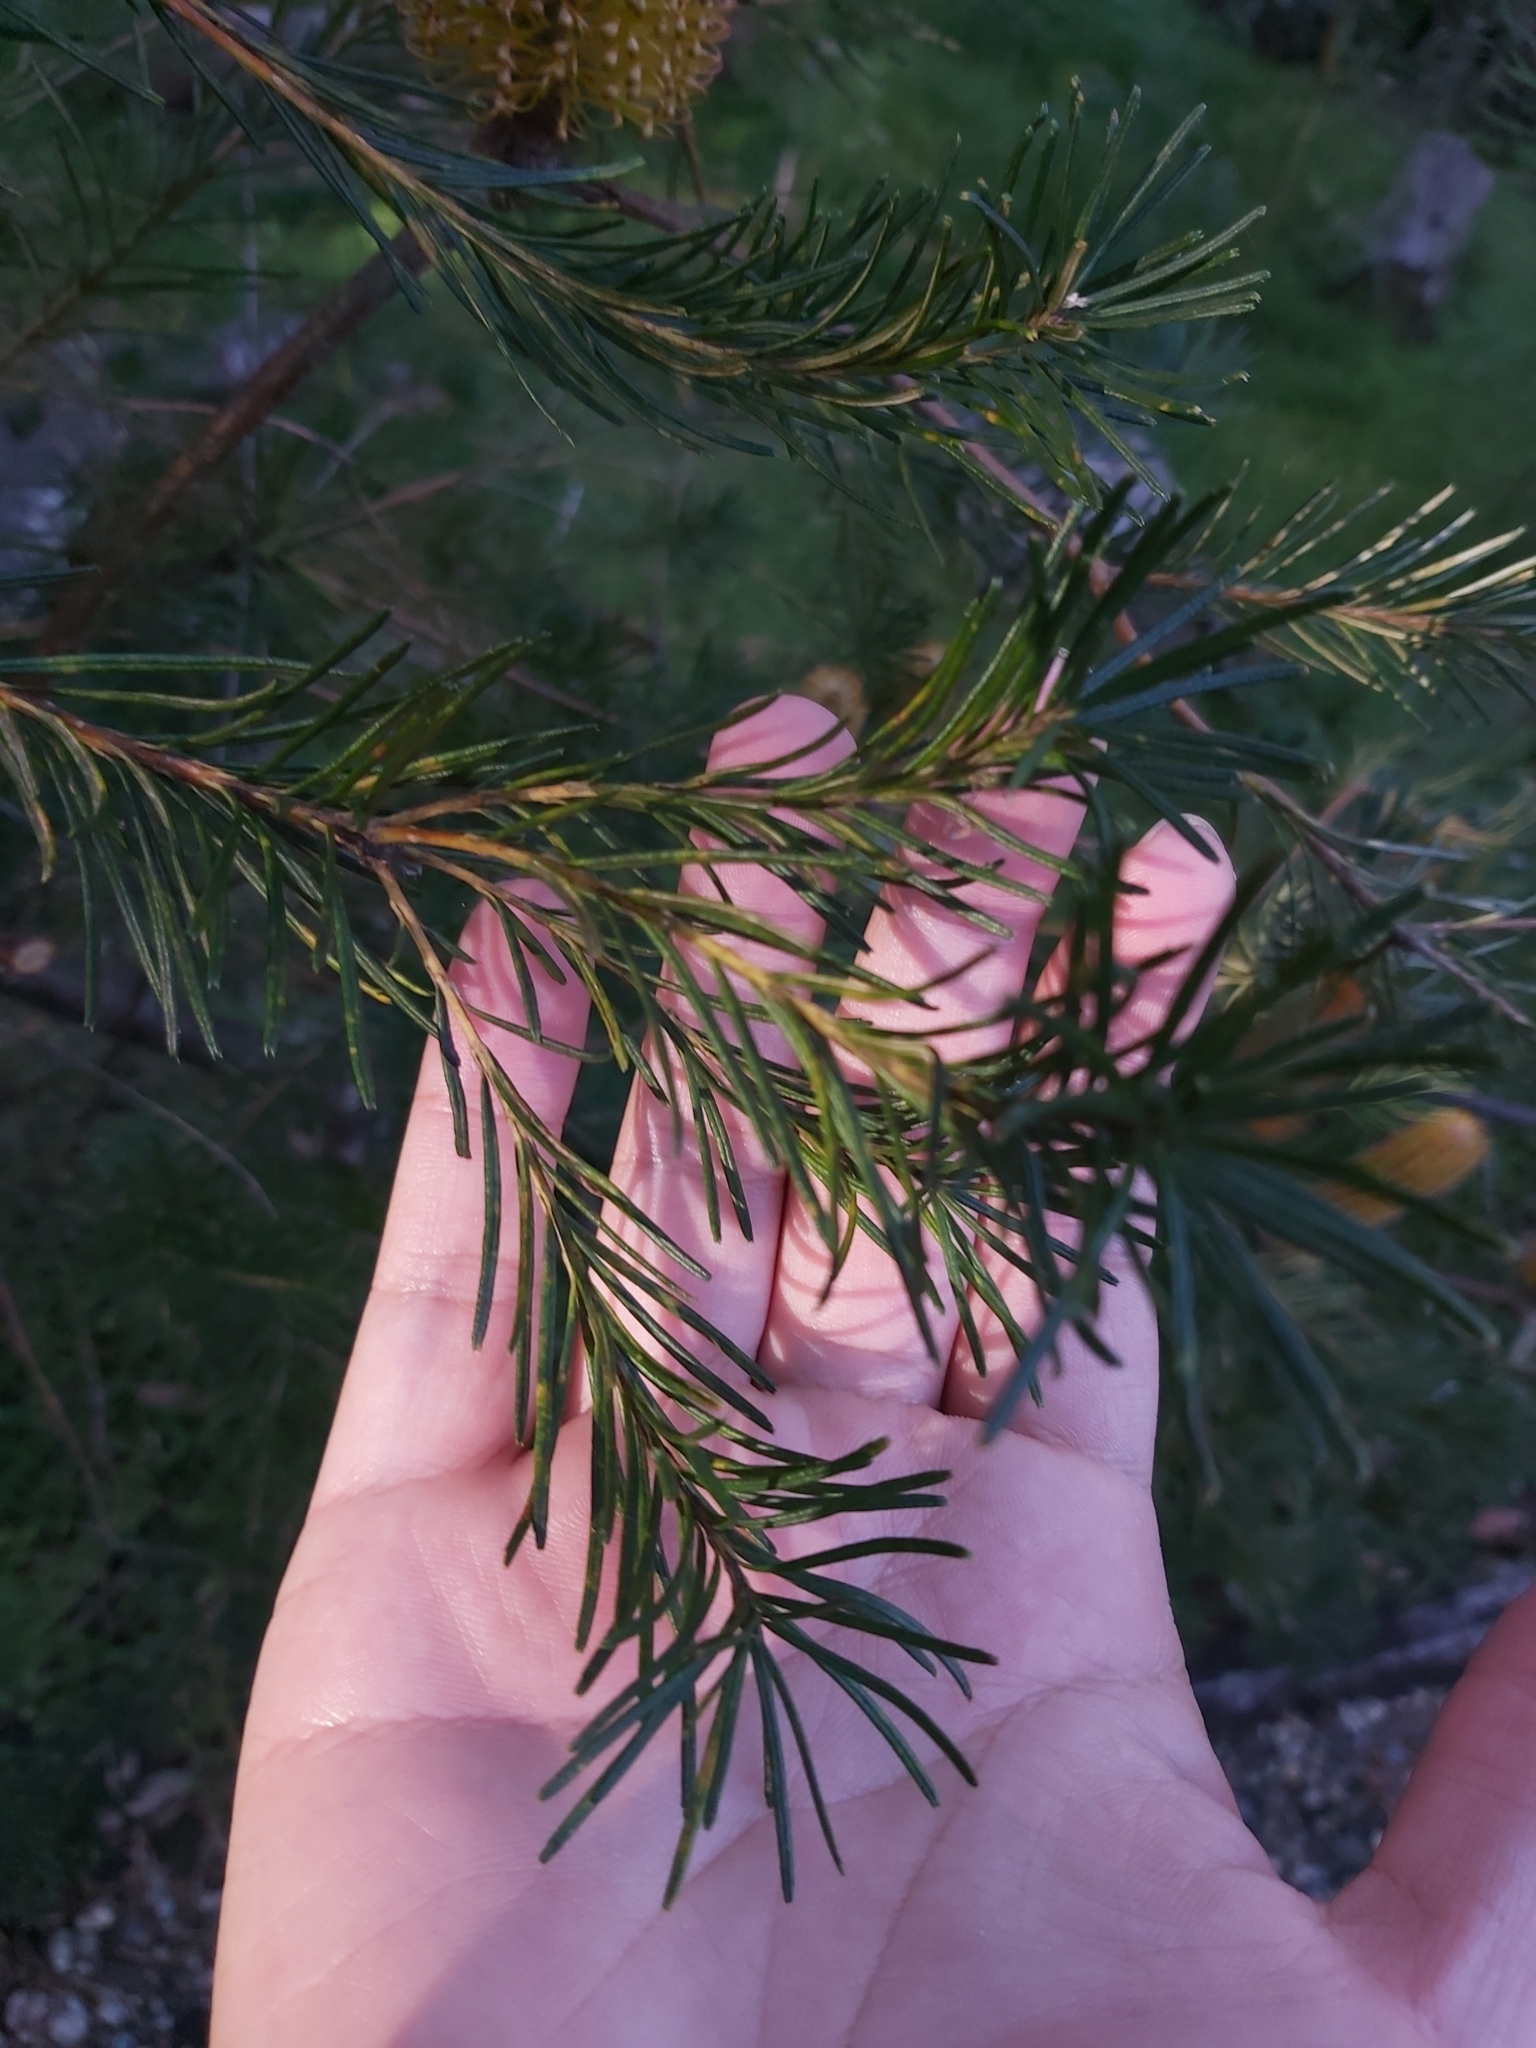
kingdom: Plantae
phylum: Tracheophyta
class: Magnoliopsida
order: Proteales
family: Proteaceae
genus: Banksia
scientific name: Banksia ericifolia
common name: Heath-leaf banksia
